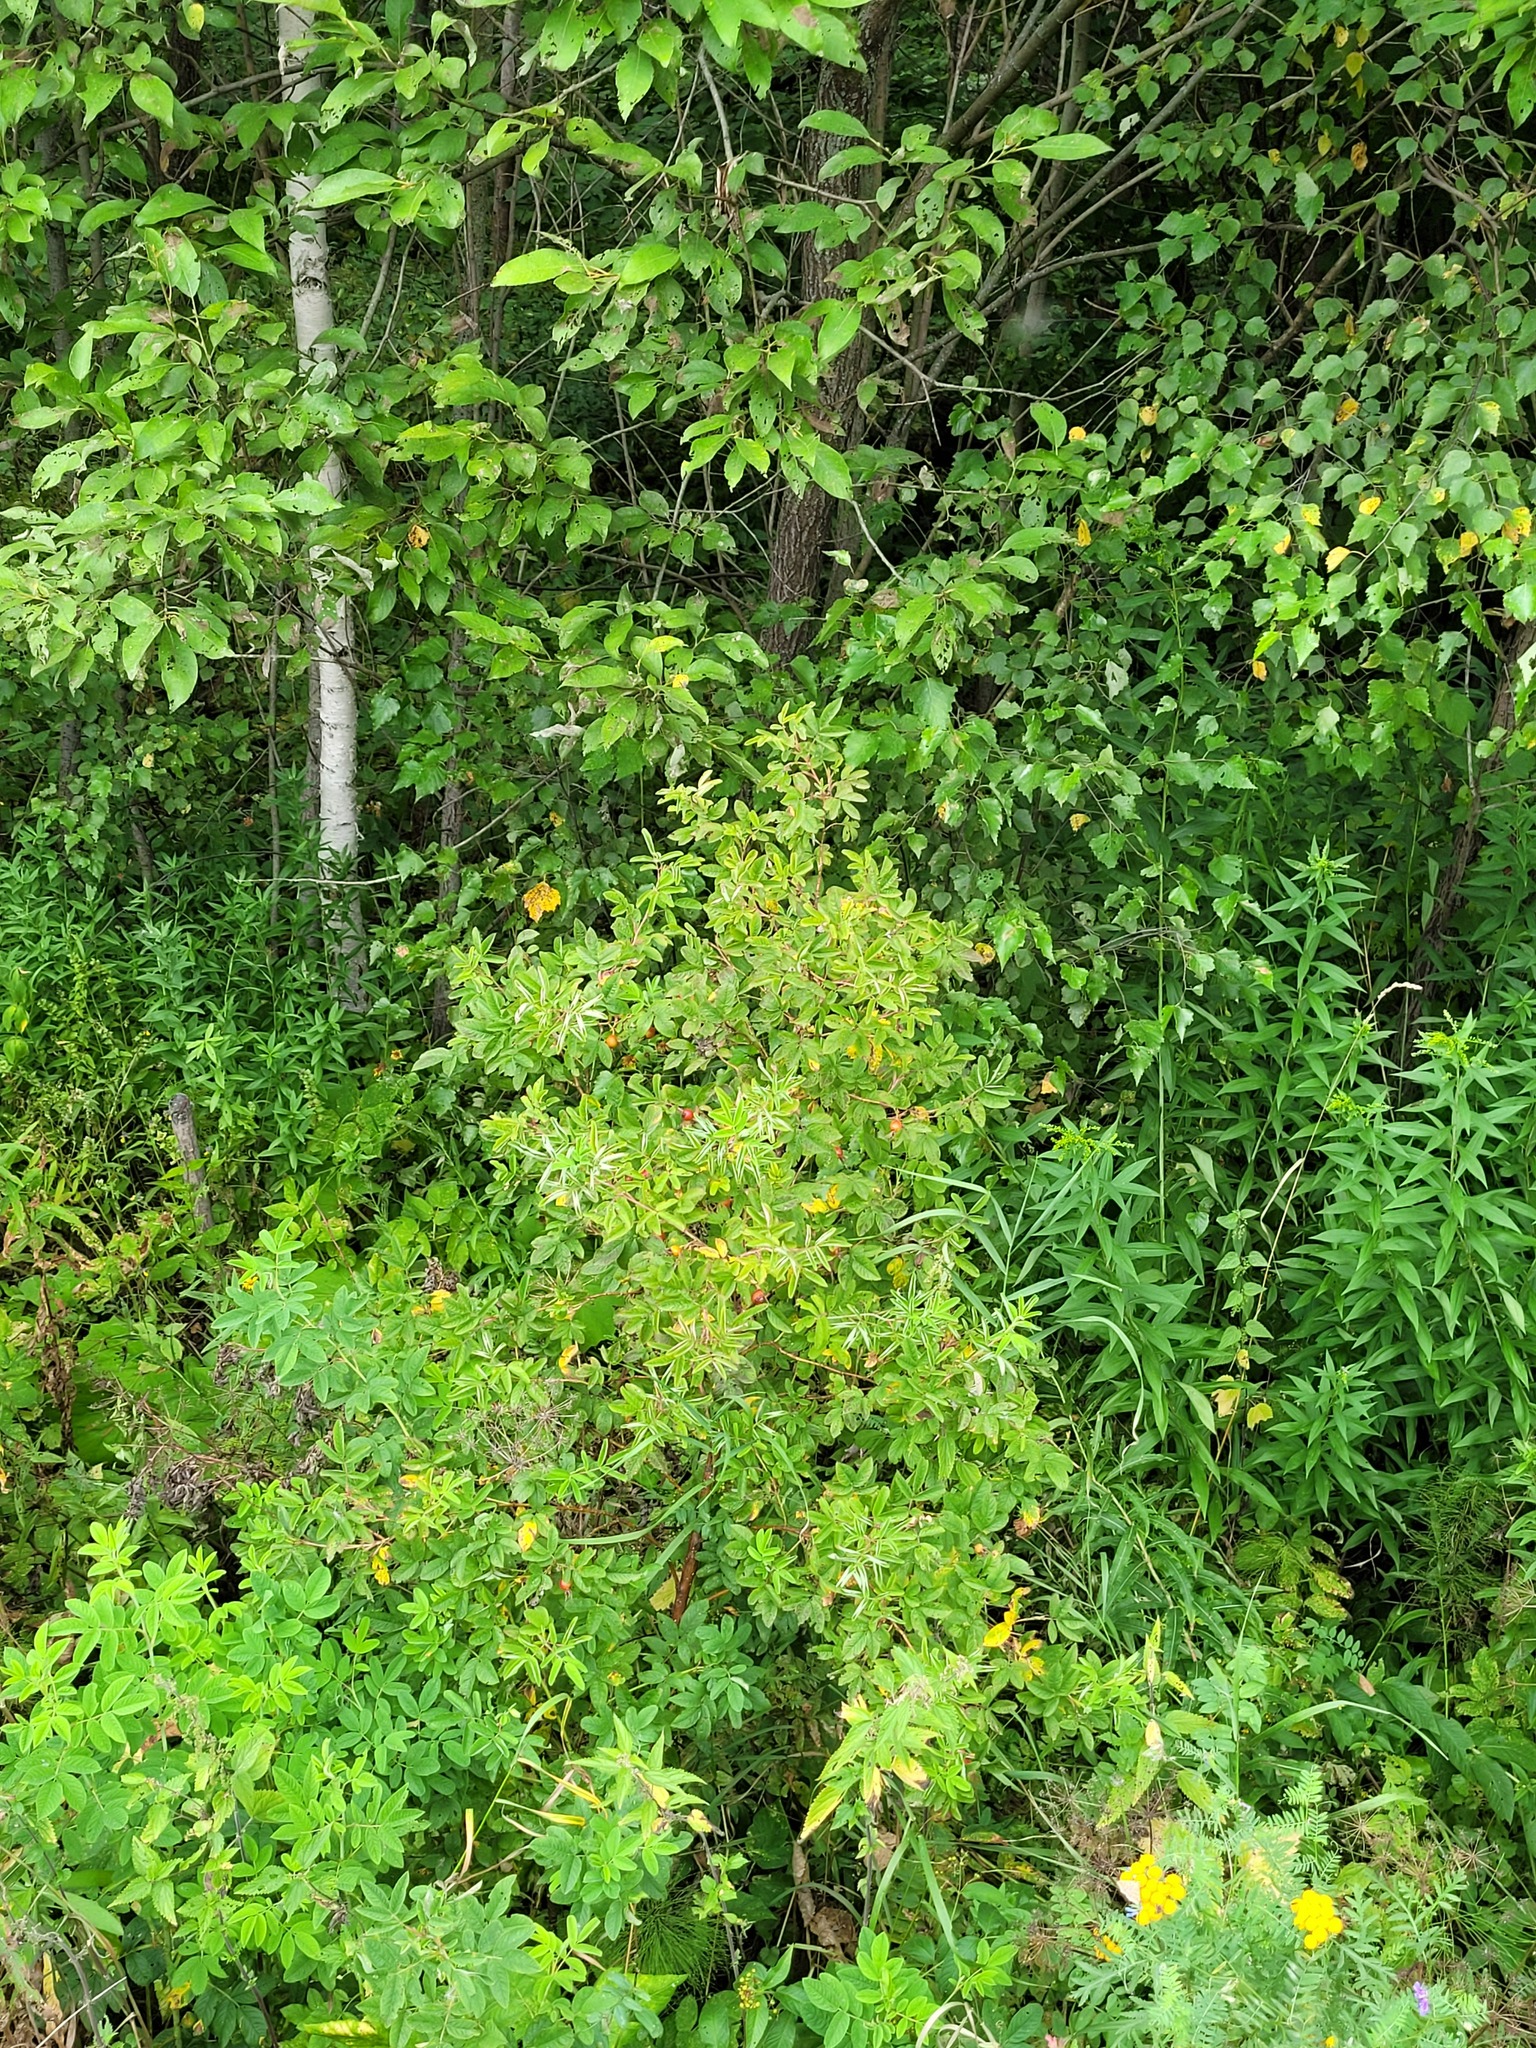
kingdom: Plantae
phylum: Tracheophyta
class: Magnoliopsida
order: Rosales
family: Rosaceae
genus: Rosa
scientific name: Rosa majalis
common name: Cinnamon rose
